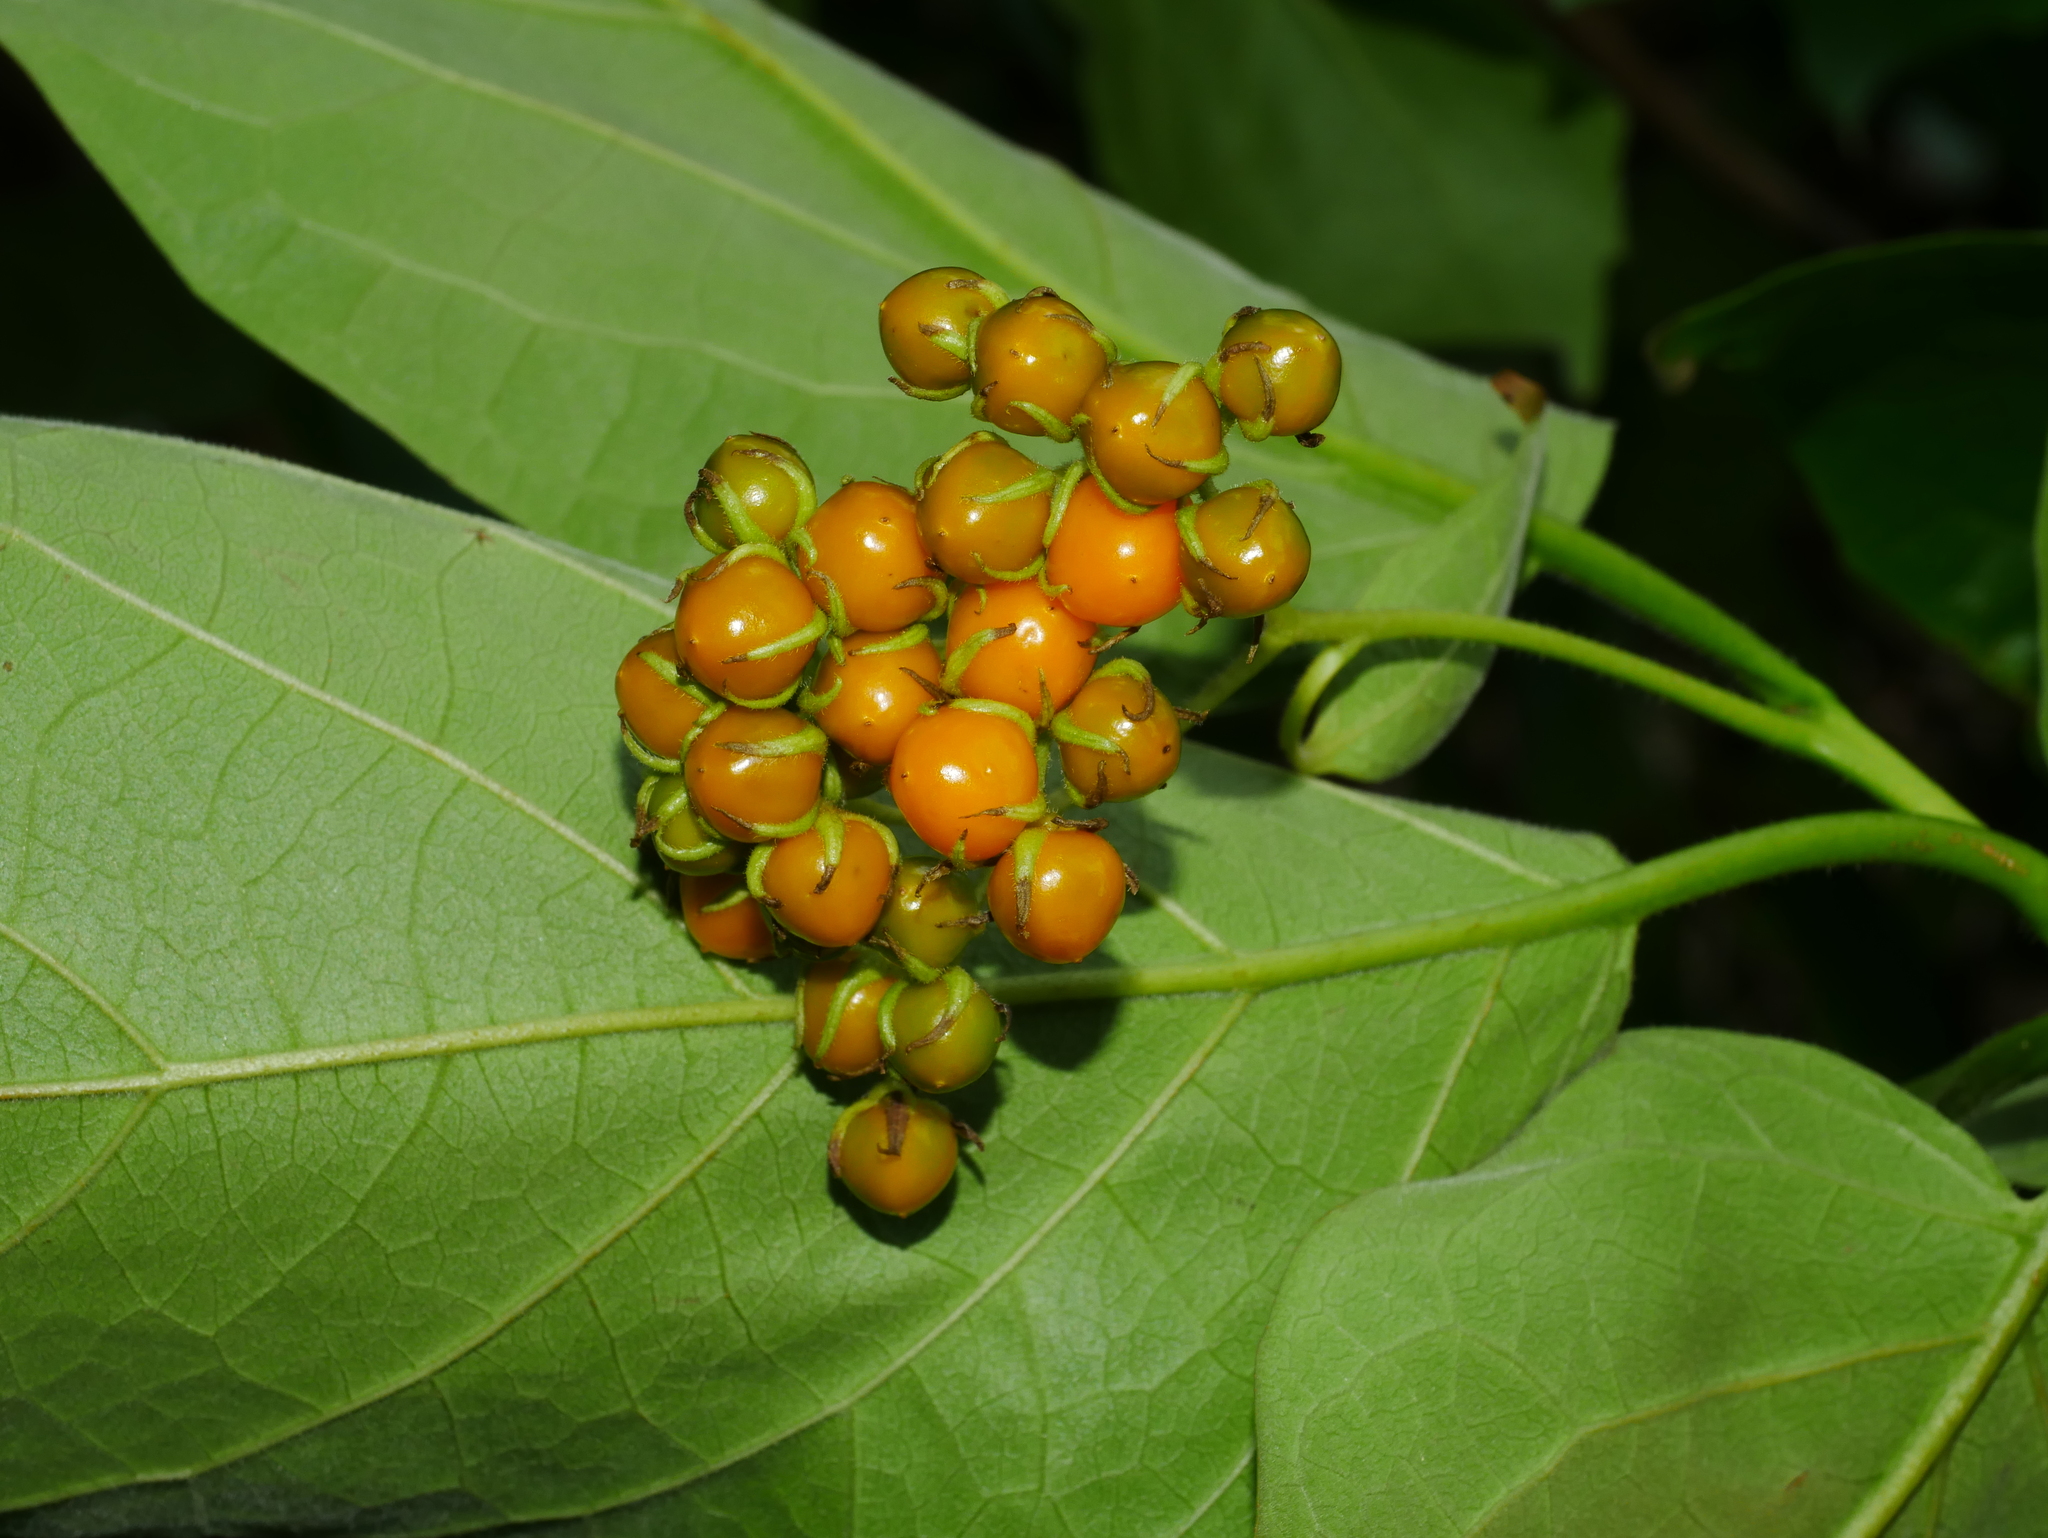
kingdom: Plantae
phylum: Tracheophyta
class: Magnoliopsida
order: Boraginales
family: Ehretiaceae
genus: Ehretia
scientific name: Ehretia resinosa
